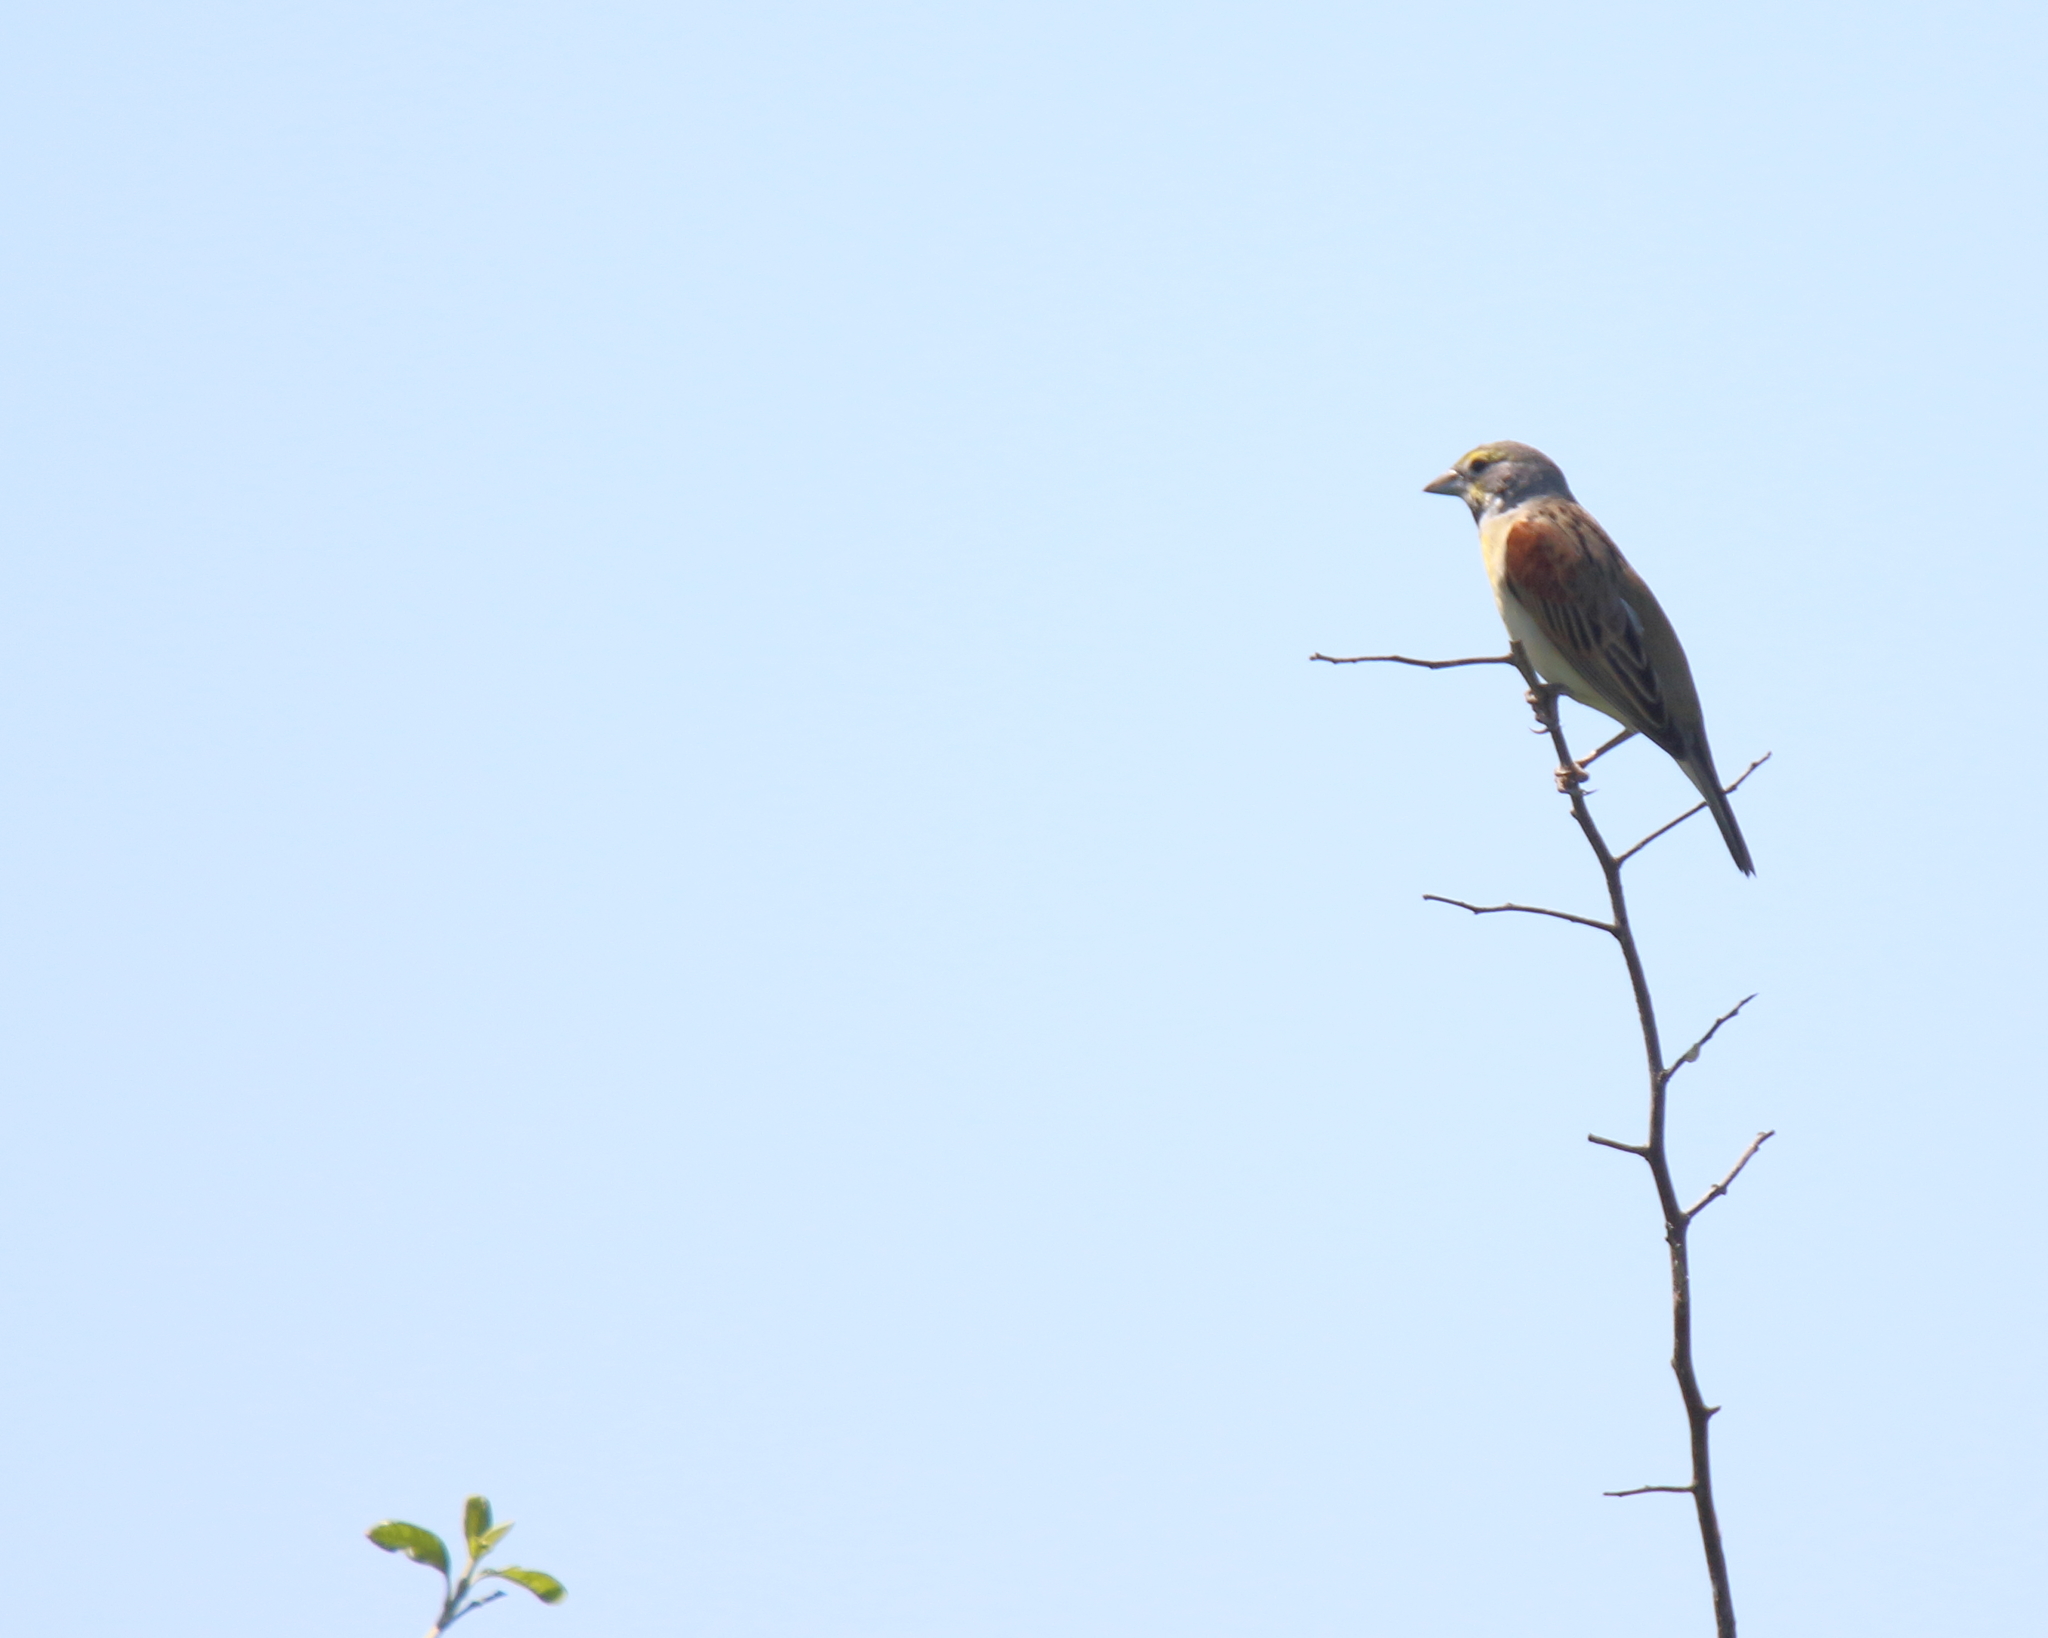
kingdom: Animalia
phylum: Chordata
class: Aves
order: Passeriformes
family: Cardinalidae
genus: Spiza
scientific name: Spiza americana
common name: Dickcissel
